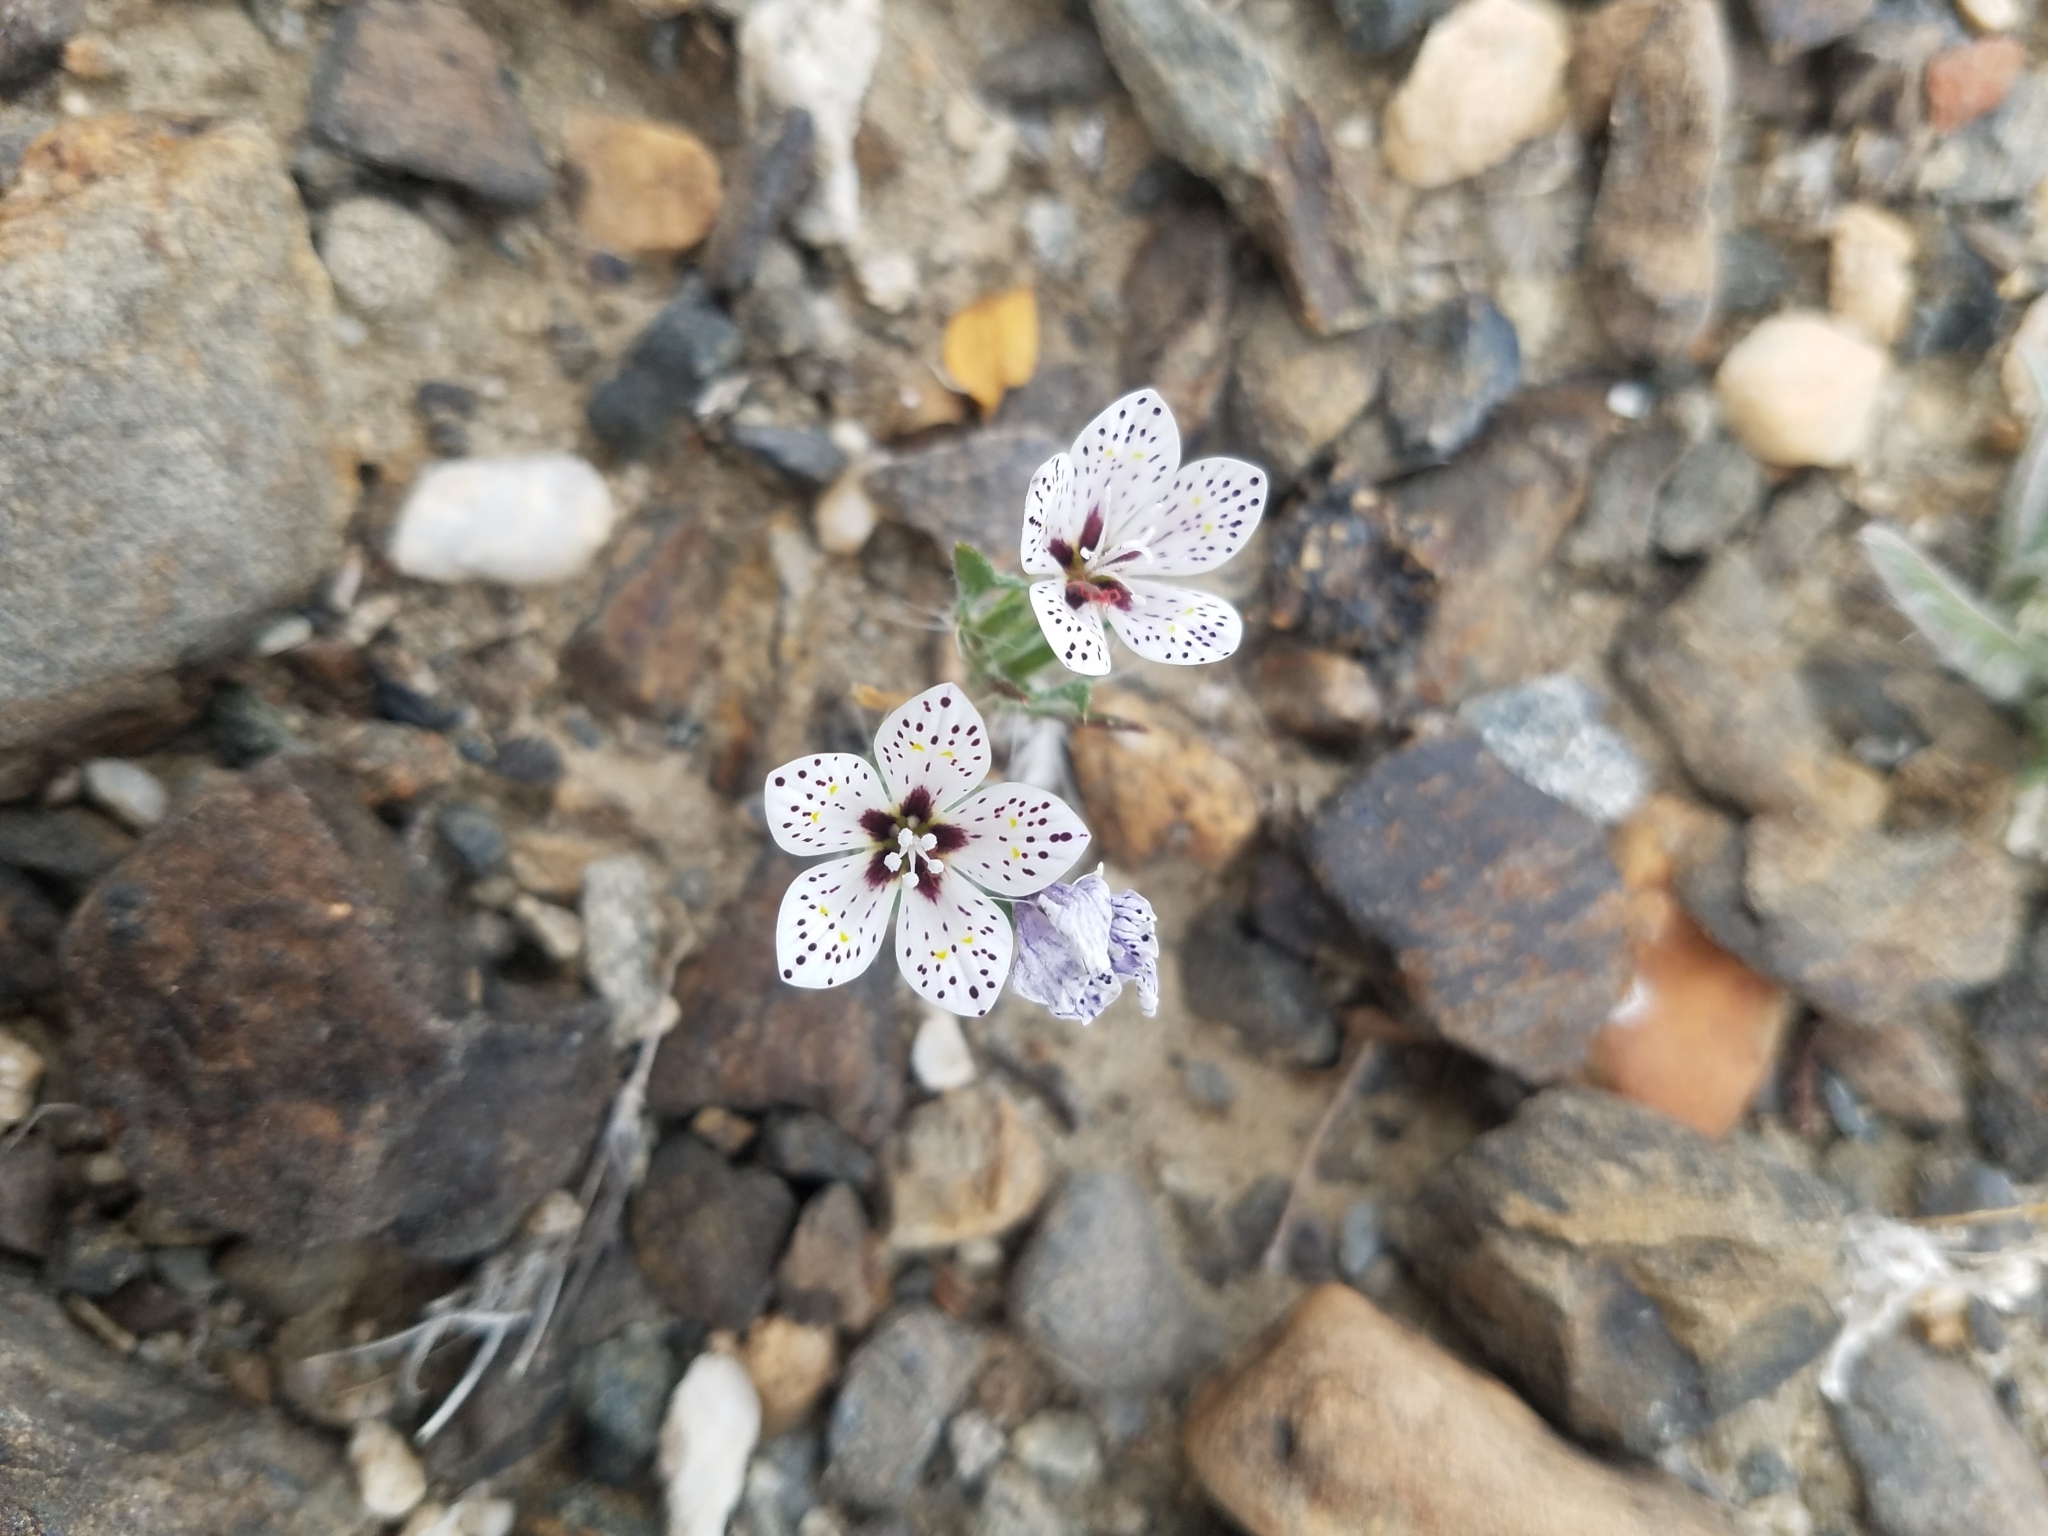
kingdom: Plantae
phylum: Tracheophyta
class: Magnoliopsida
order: Ericales
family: Polemoniaceae
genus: Langloisia
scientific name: Langloisia setosissima
